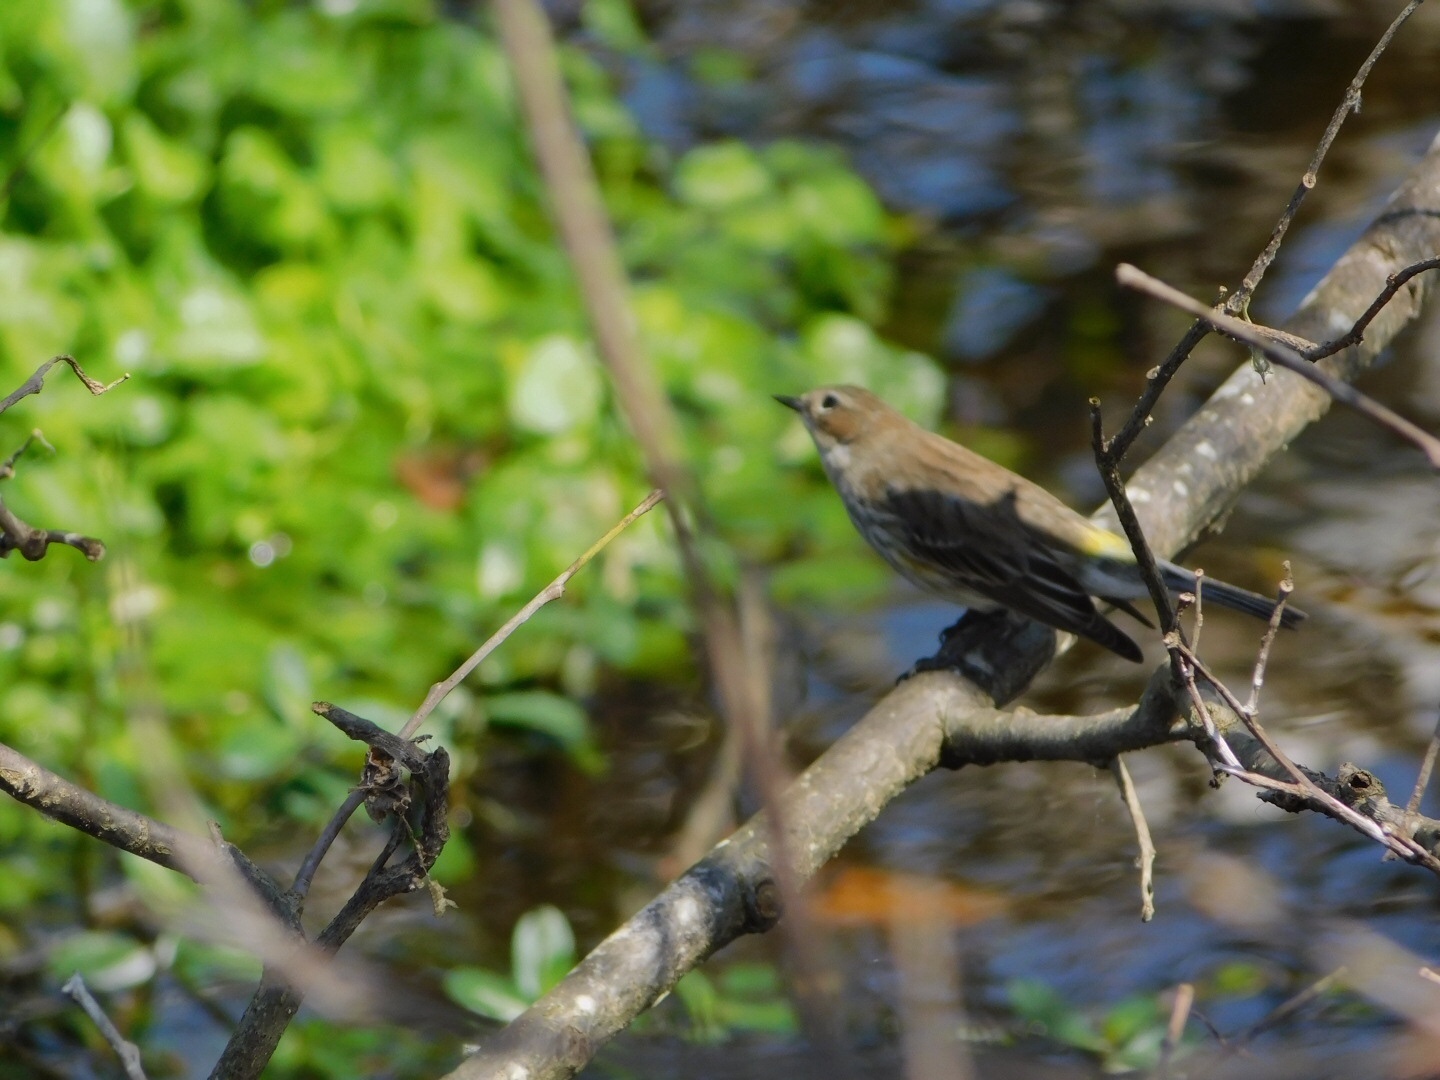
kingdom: Animalia
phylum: Chordata
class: Aves
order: Passeriformes
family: Parulidae
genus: Setophaga
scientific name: Setophaga coronata
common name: Myrtle warbler
